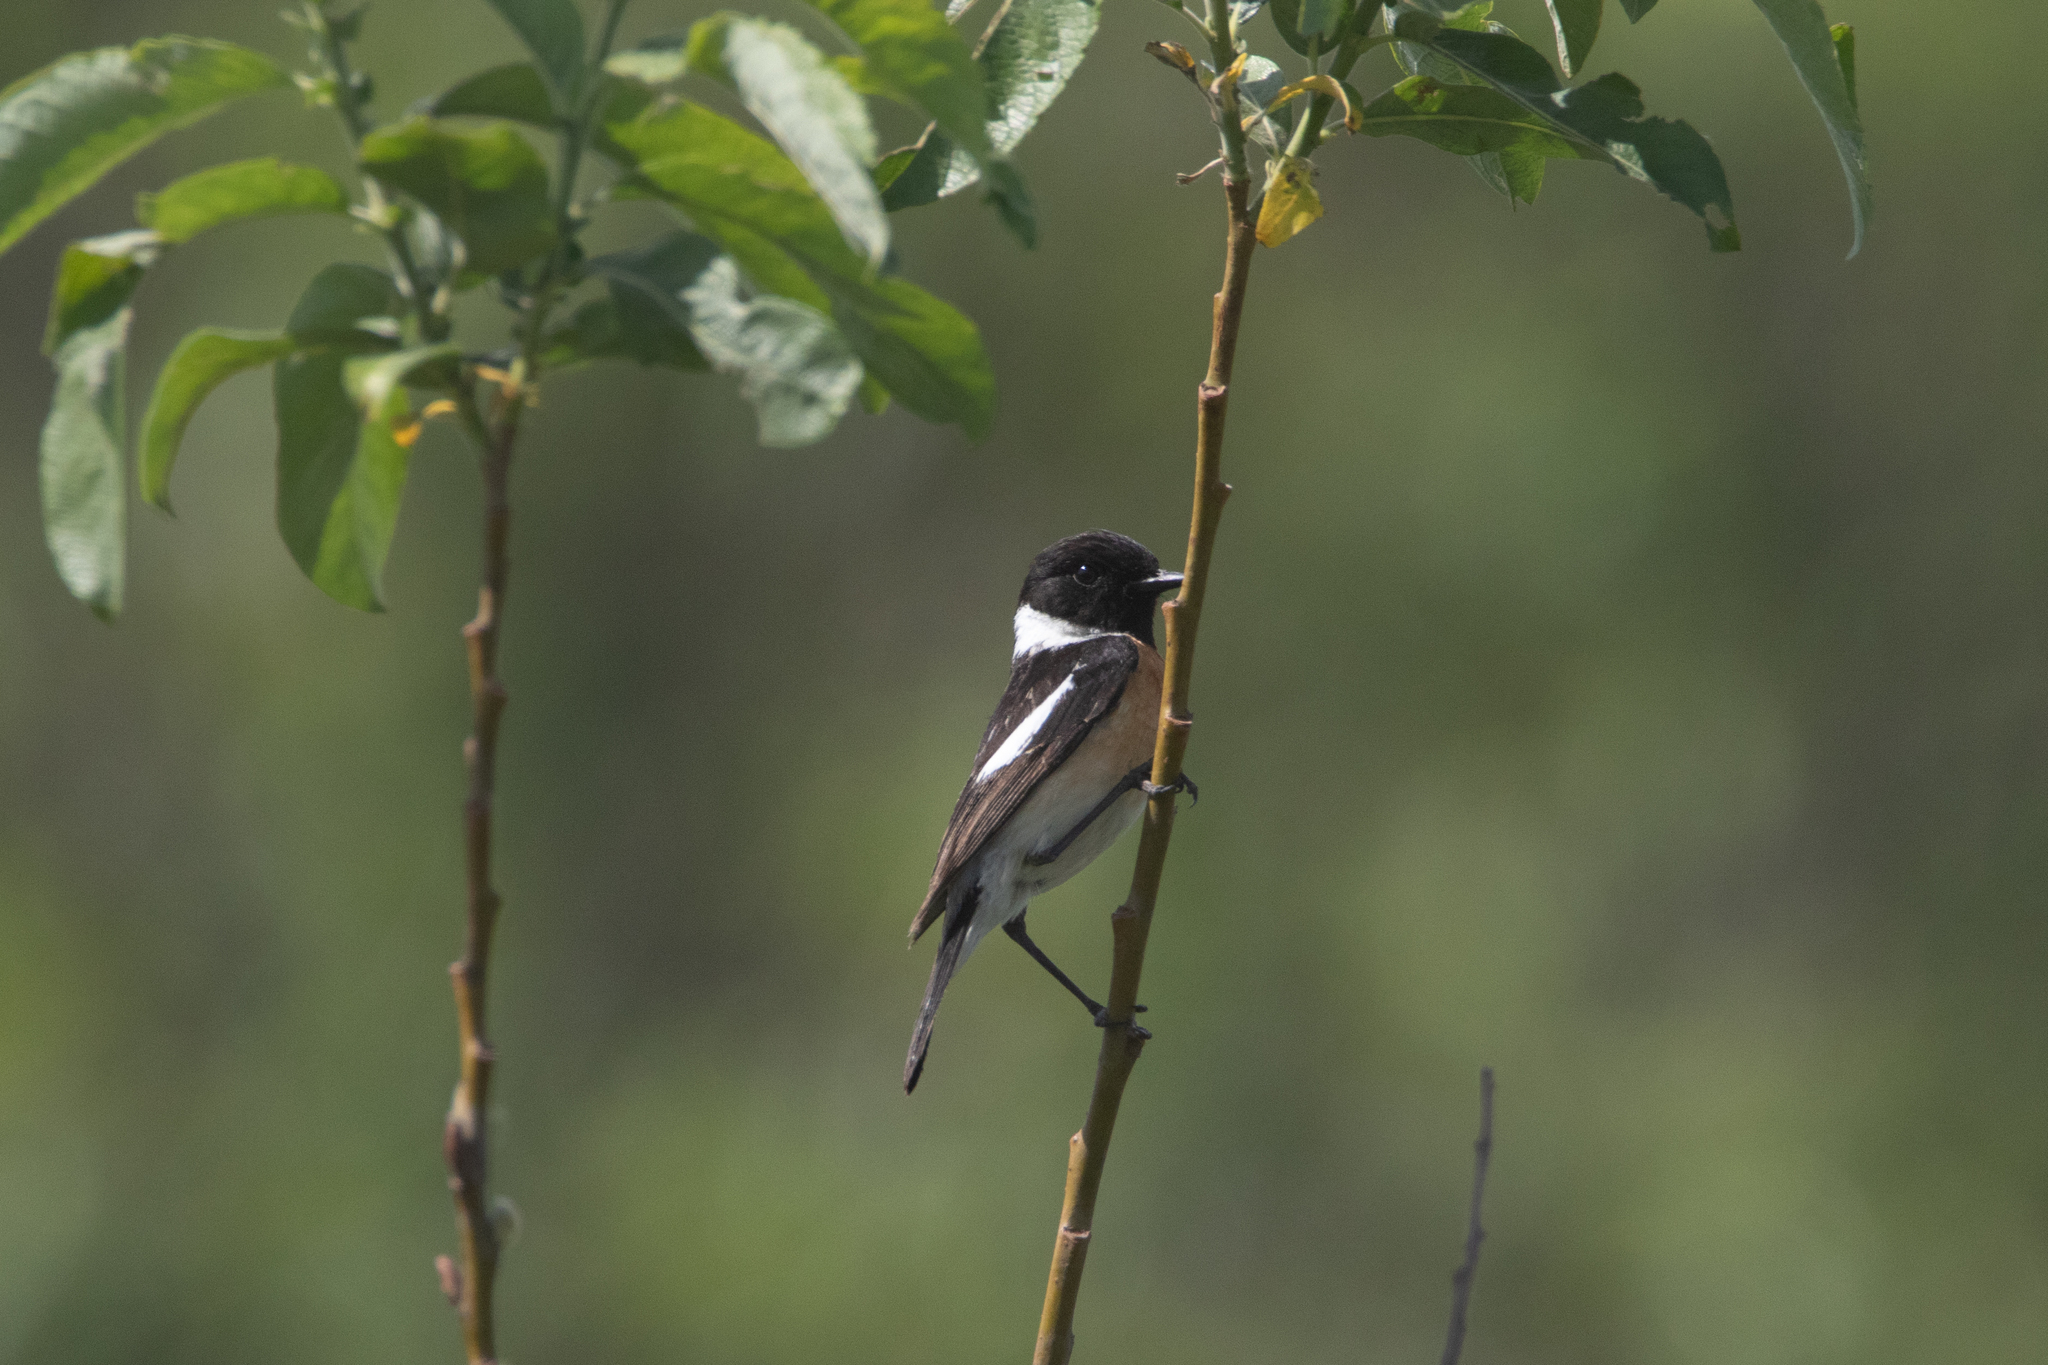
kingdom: Animalia
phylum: Chordata
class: Aves
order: Passeriformes
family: Muscicapidae
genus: Saxicola
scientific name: Saxicola maurus
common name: Siberian stonechat
